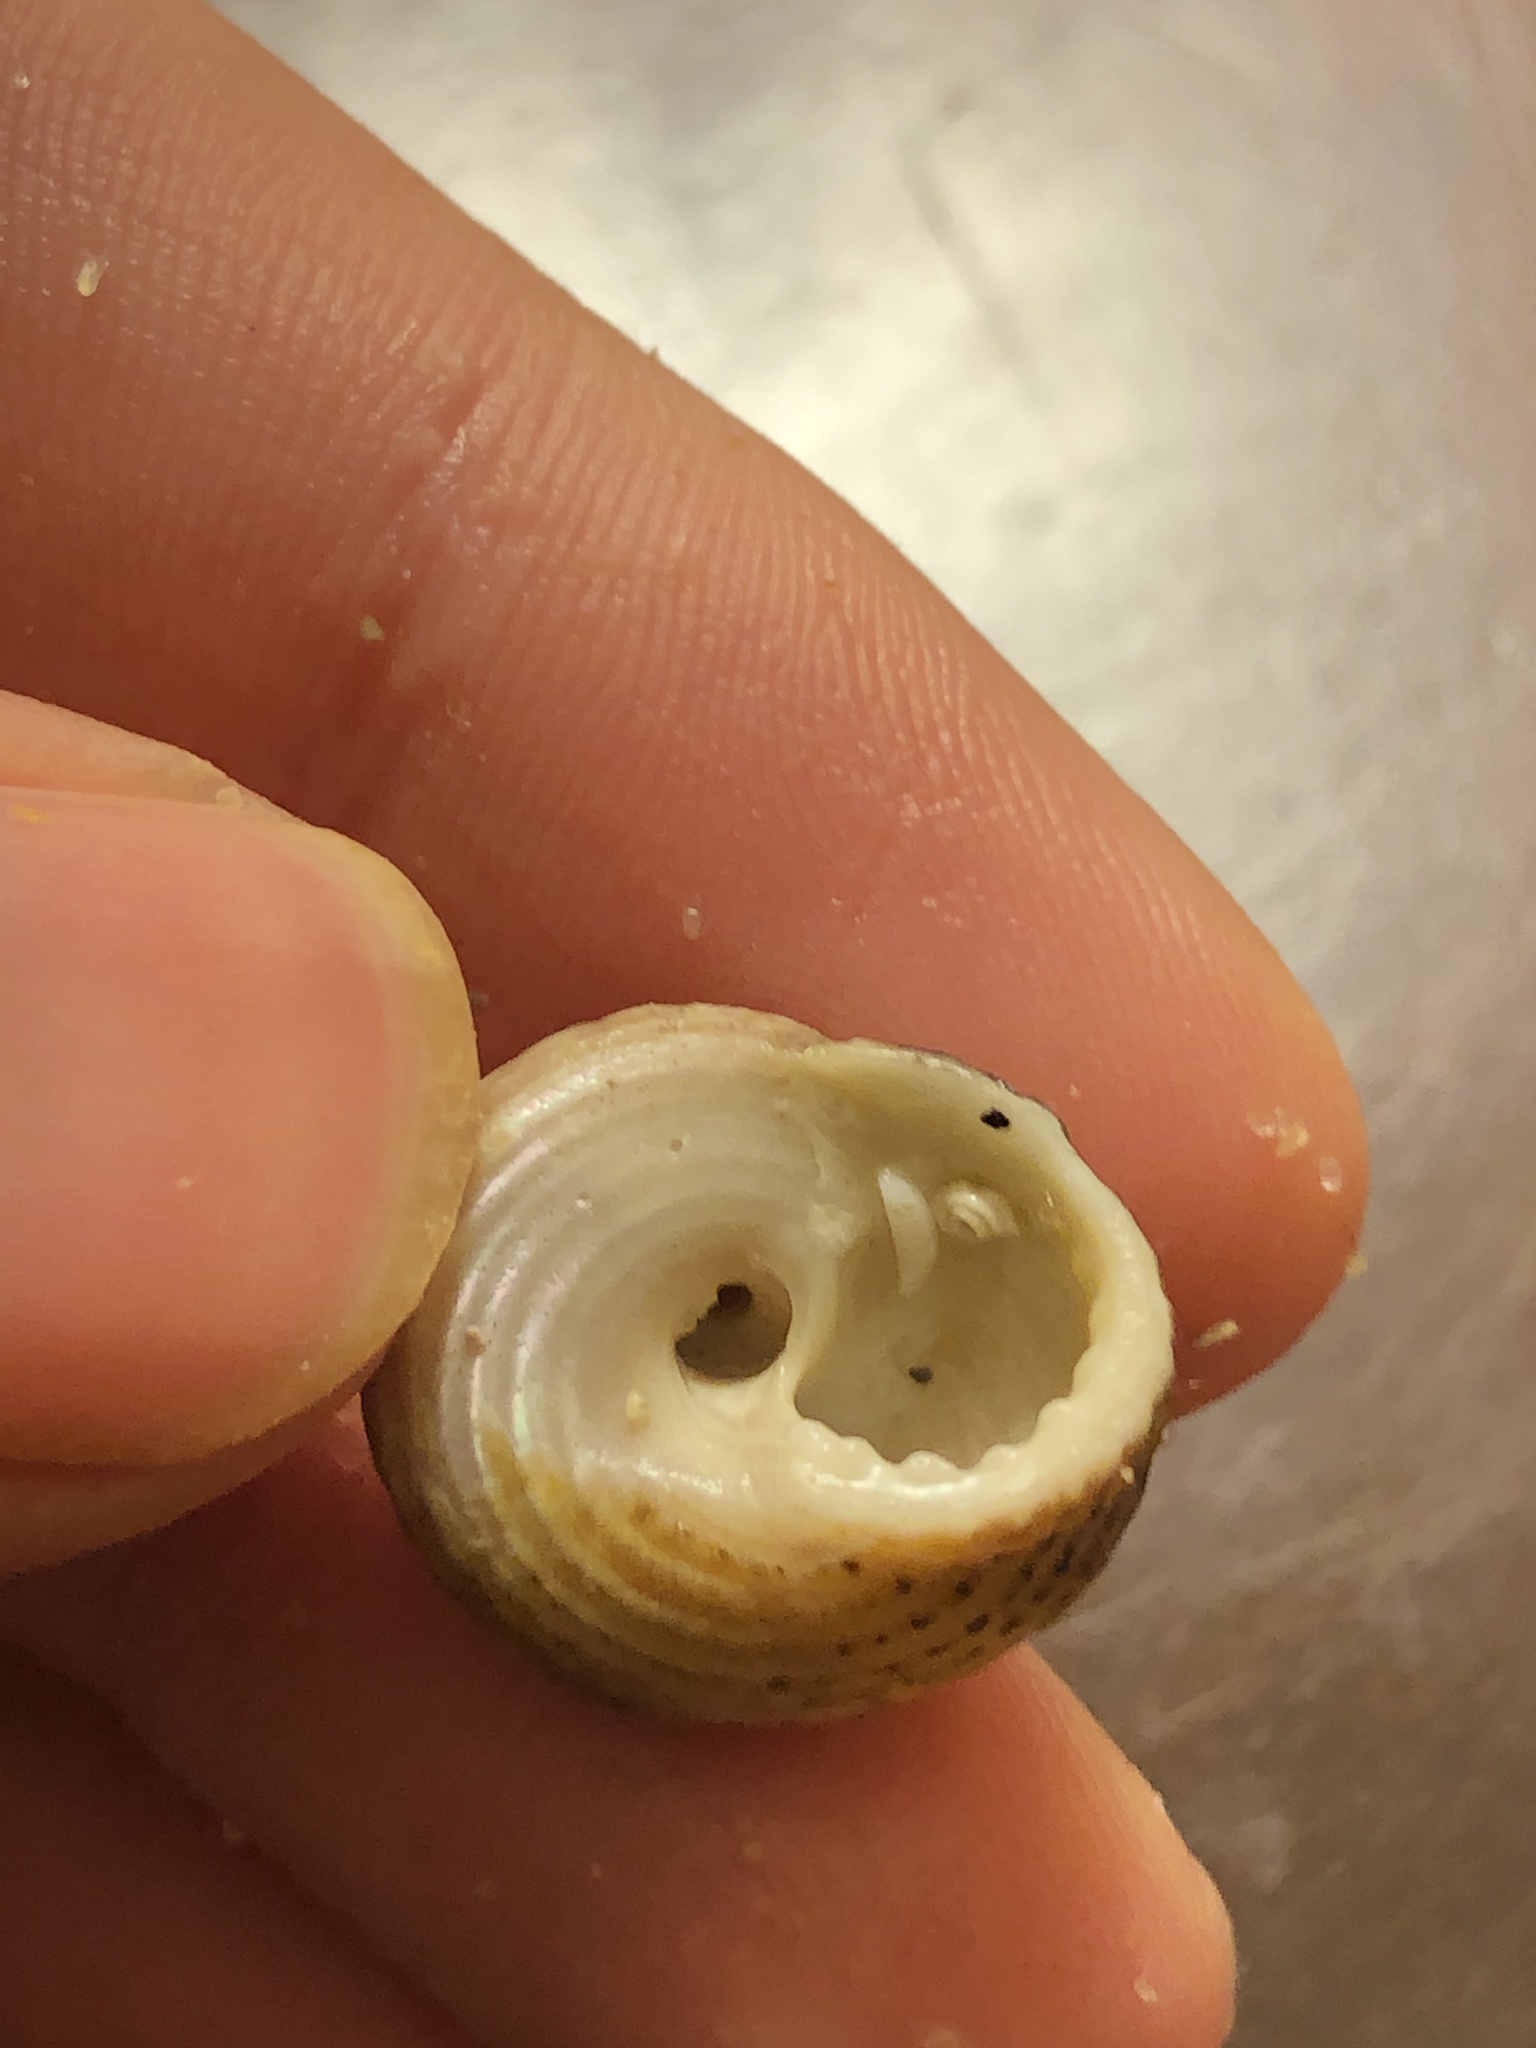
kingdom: Animalia
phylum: Mollusca
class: Gastropoda
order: Trochida
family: Tegulidae
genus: Tegula
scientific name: Tegula eiseni
